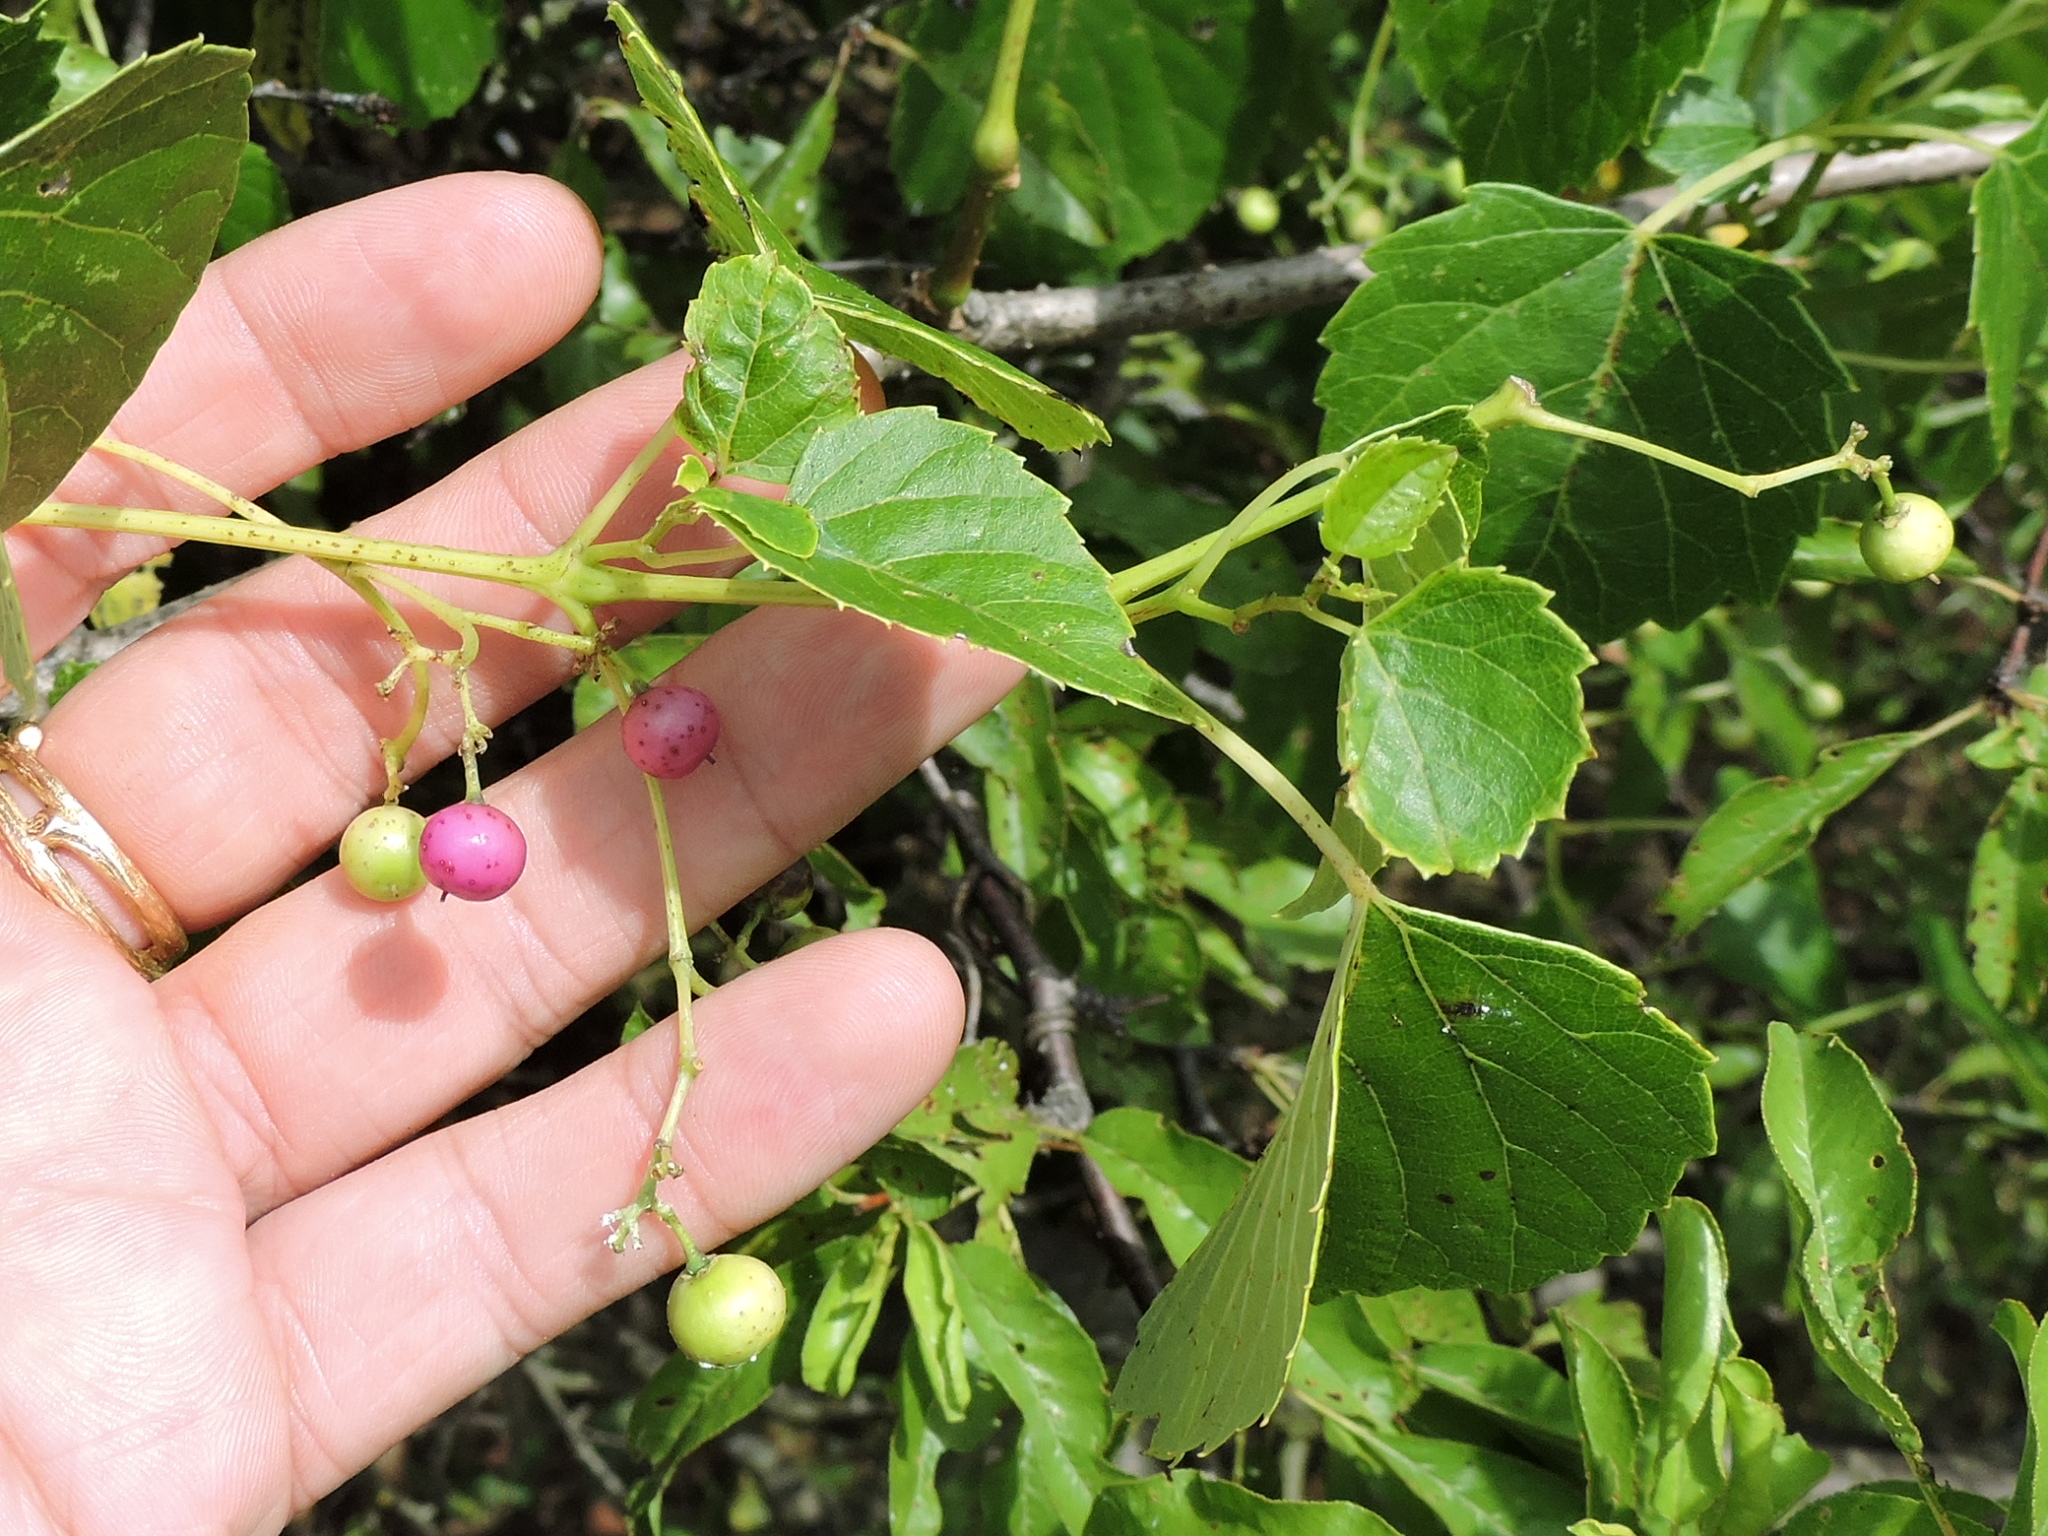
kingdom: Plantae
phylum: Tracheophyta
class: Magnoliopsida
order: Vitales
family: Vitaceae
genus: Ampelopsis
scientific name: Ampelopsis cordata
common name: Heart-leaf ampelopsis
